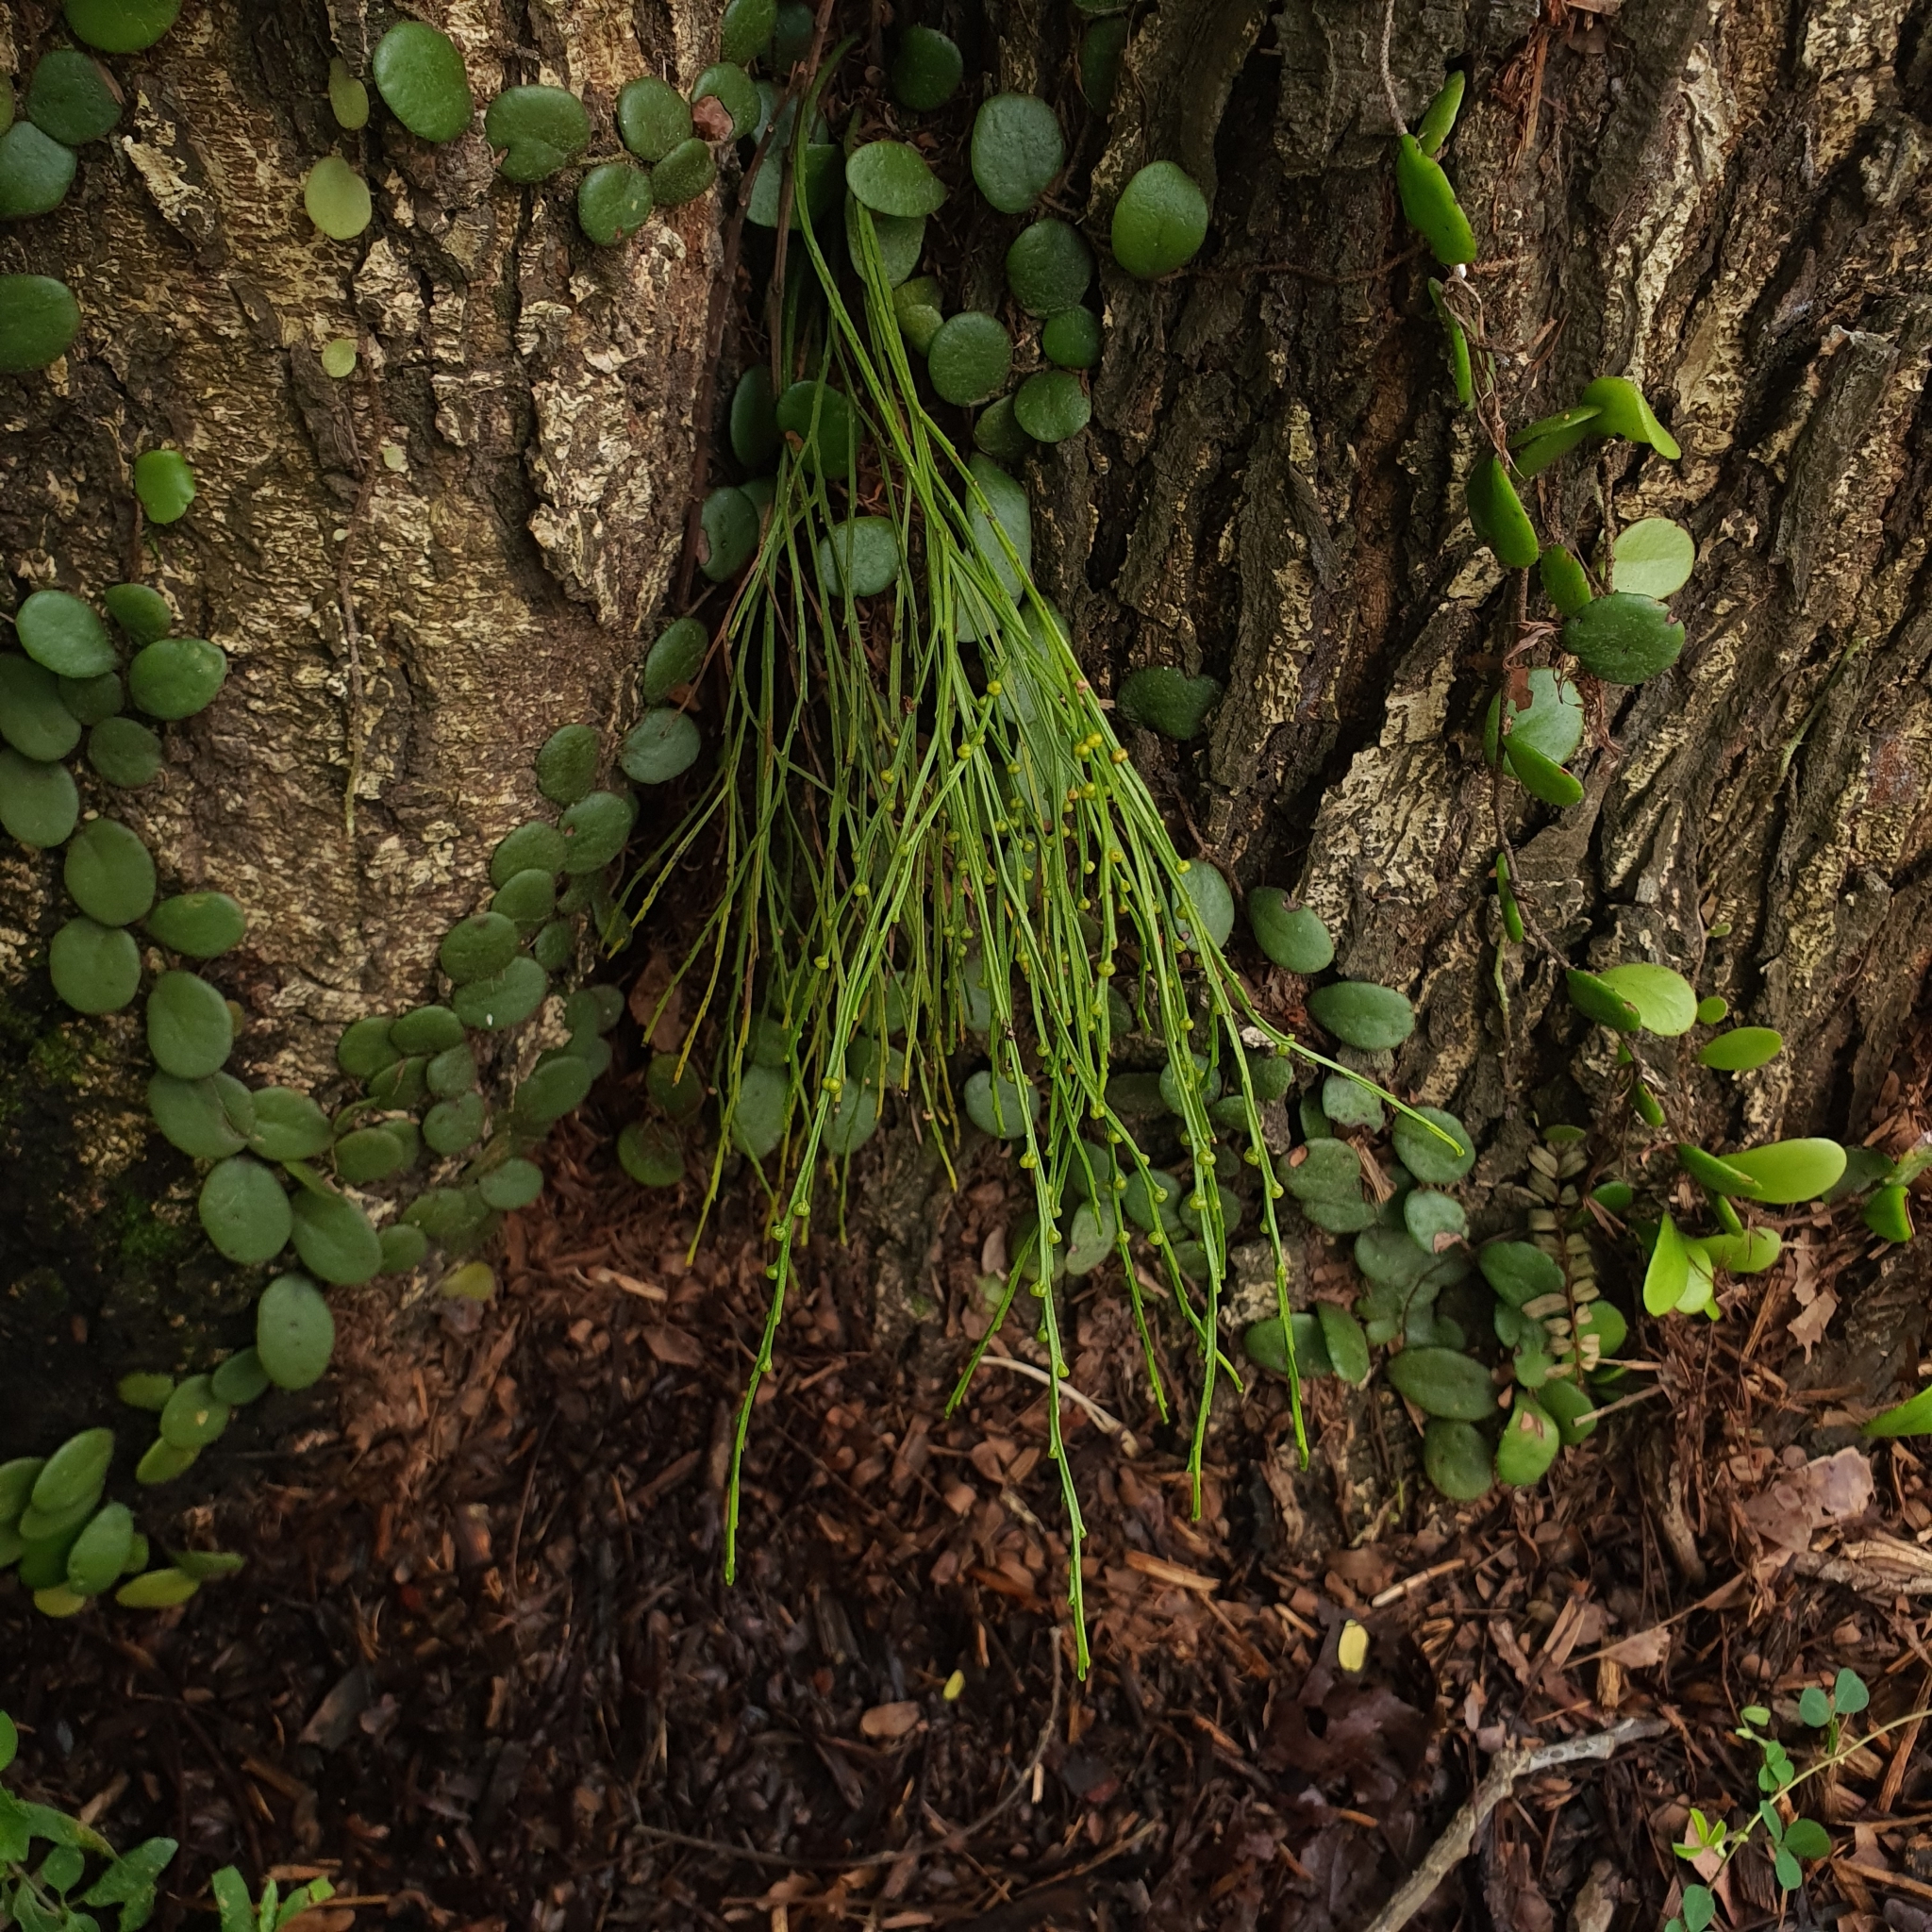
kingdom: Plantae
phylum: Tracheophyta
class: Polypodiopsida
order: Psilotales
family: Psilotaceae
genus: Psilotum
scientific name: Psilotum nudum
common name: Skeleton fork fern
